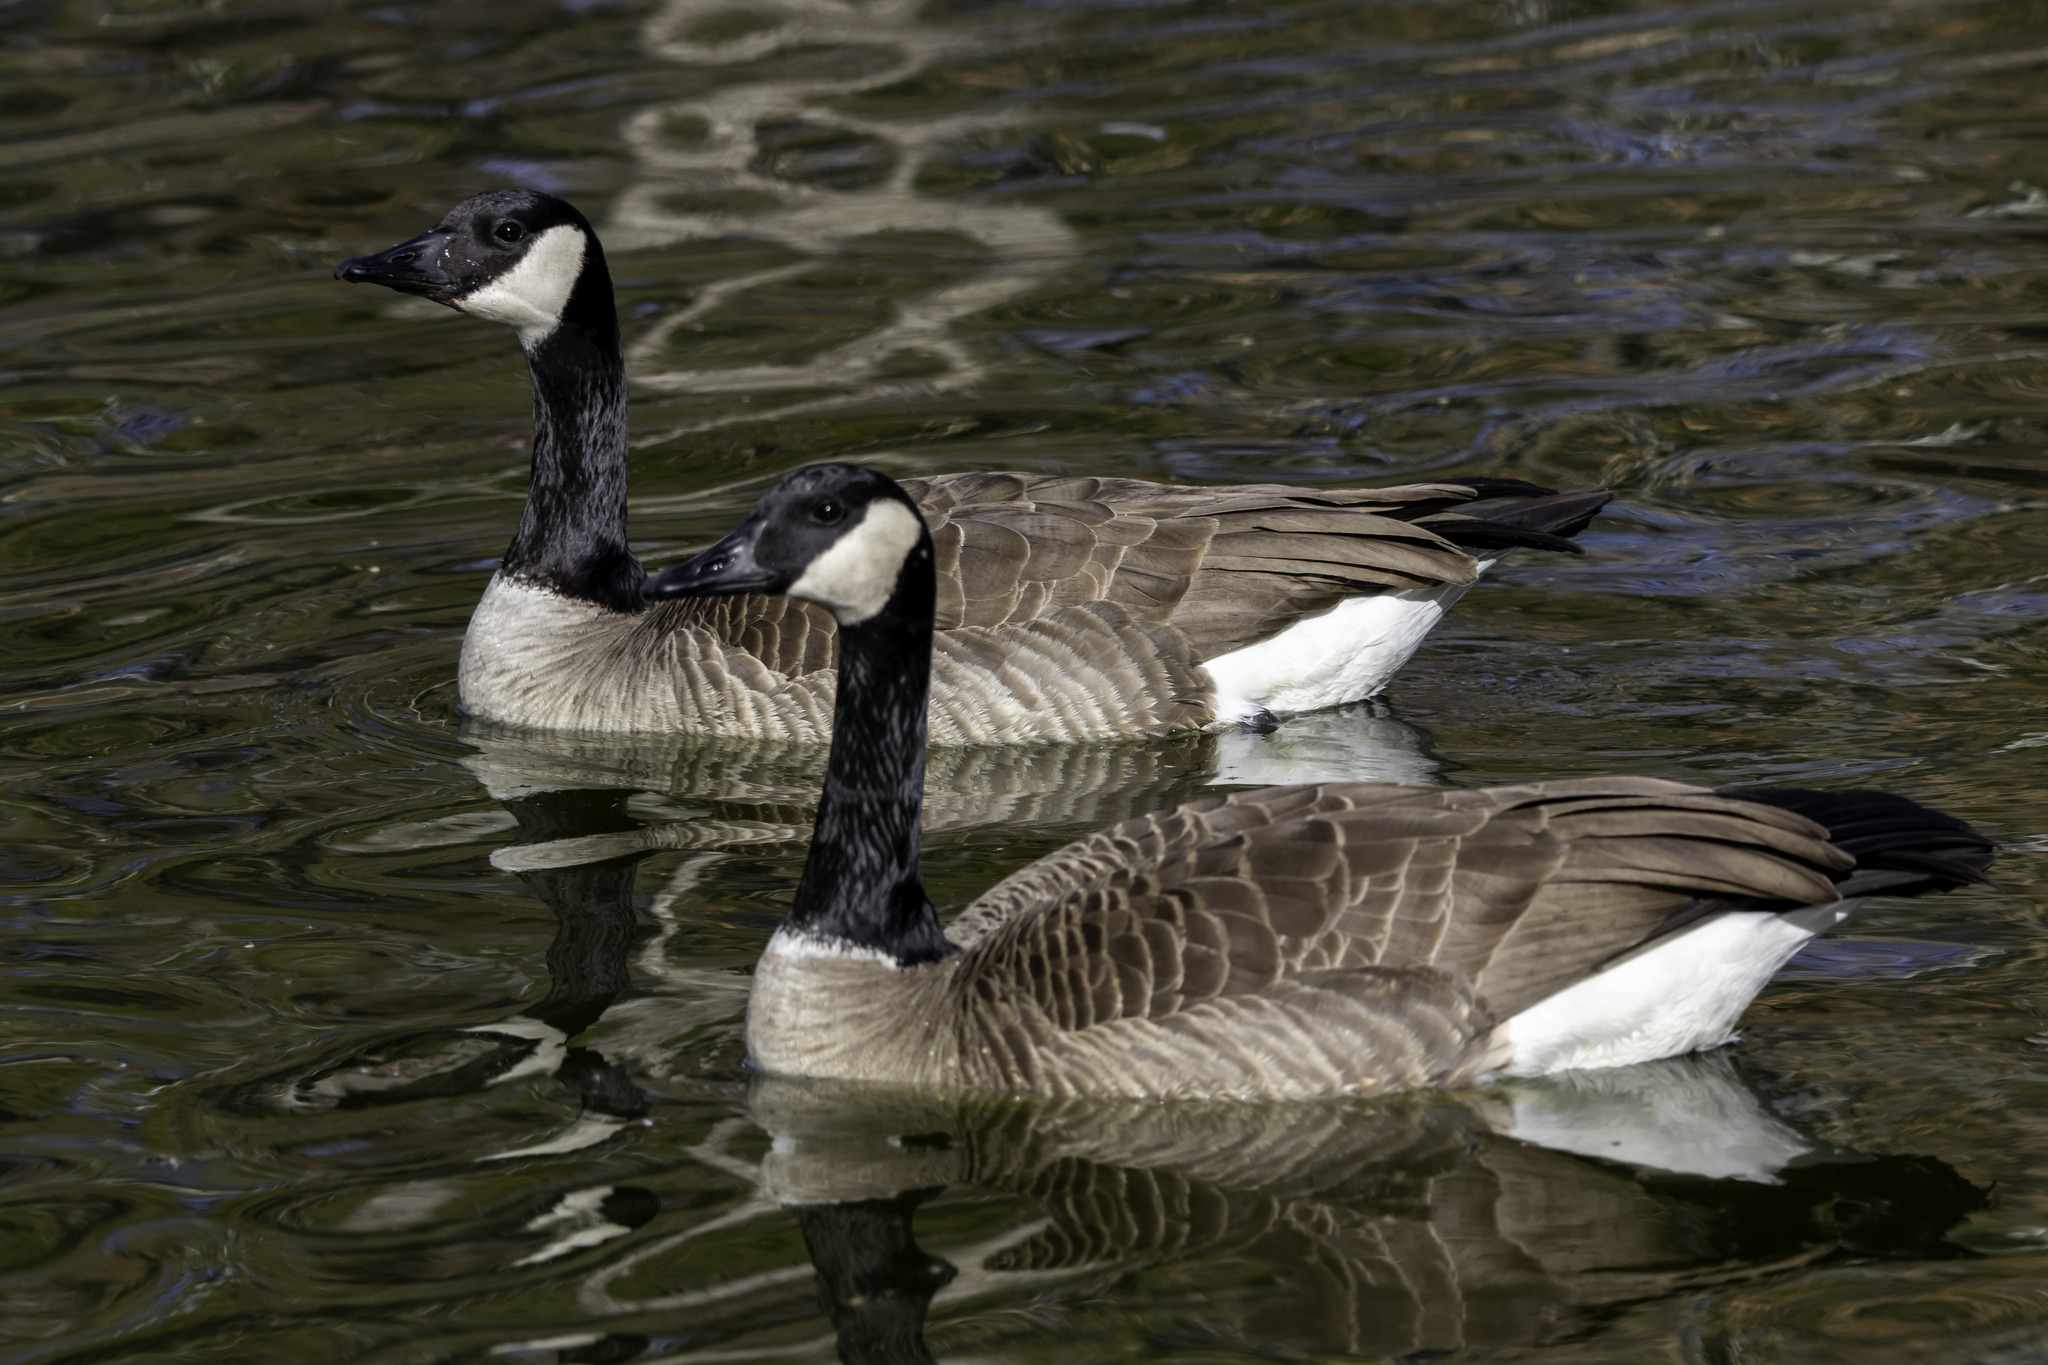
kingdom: Animalia
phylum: Chordata
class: Aves
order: Anseriformes
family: Anatidae
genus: Branta
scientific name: Branta canadensis
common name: Canada goose
